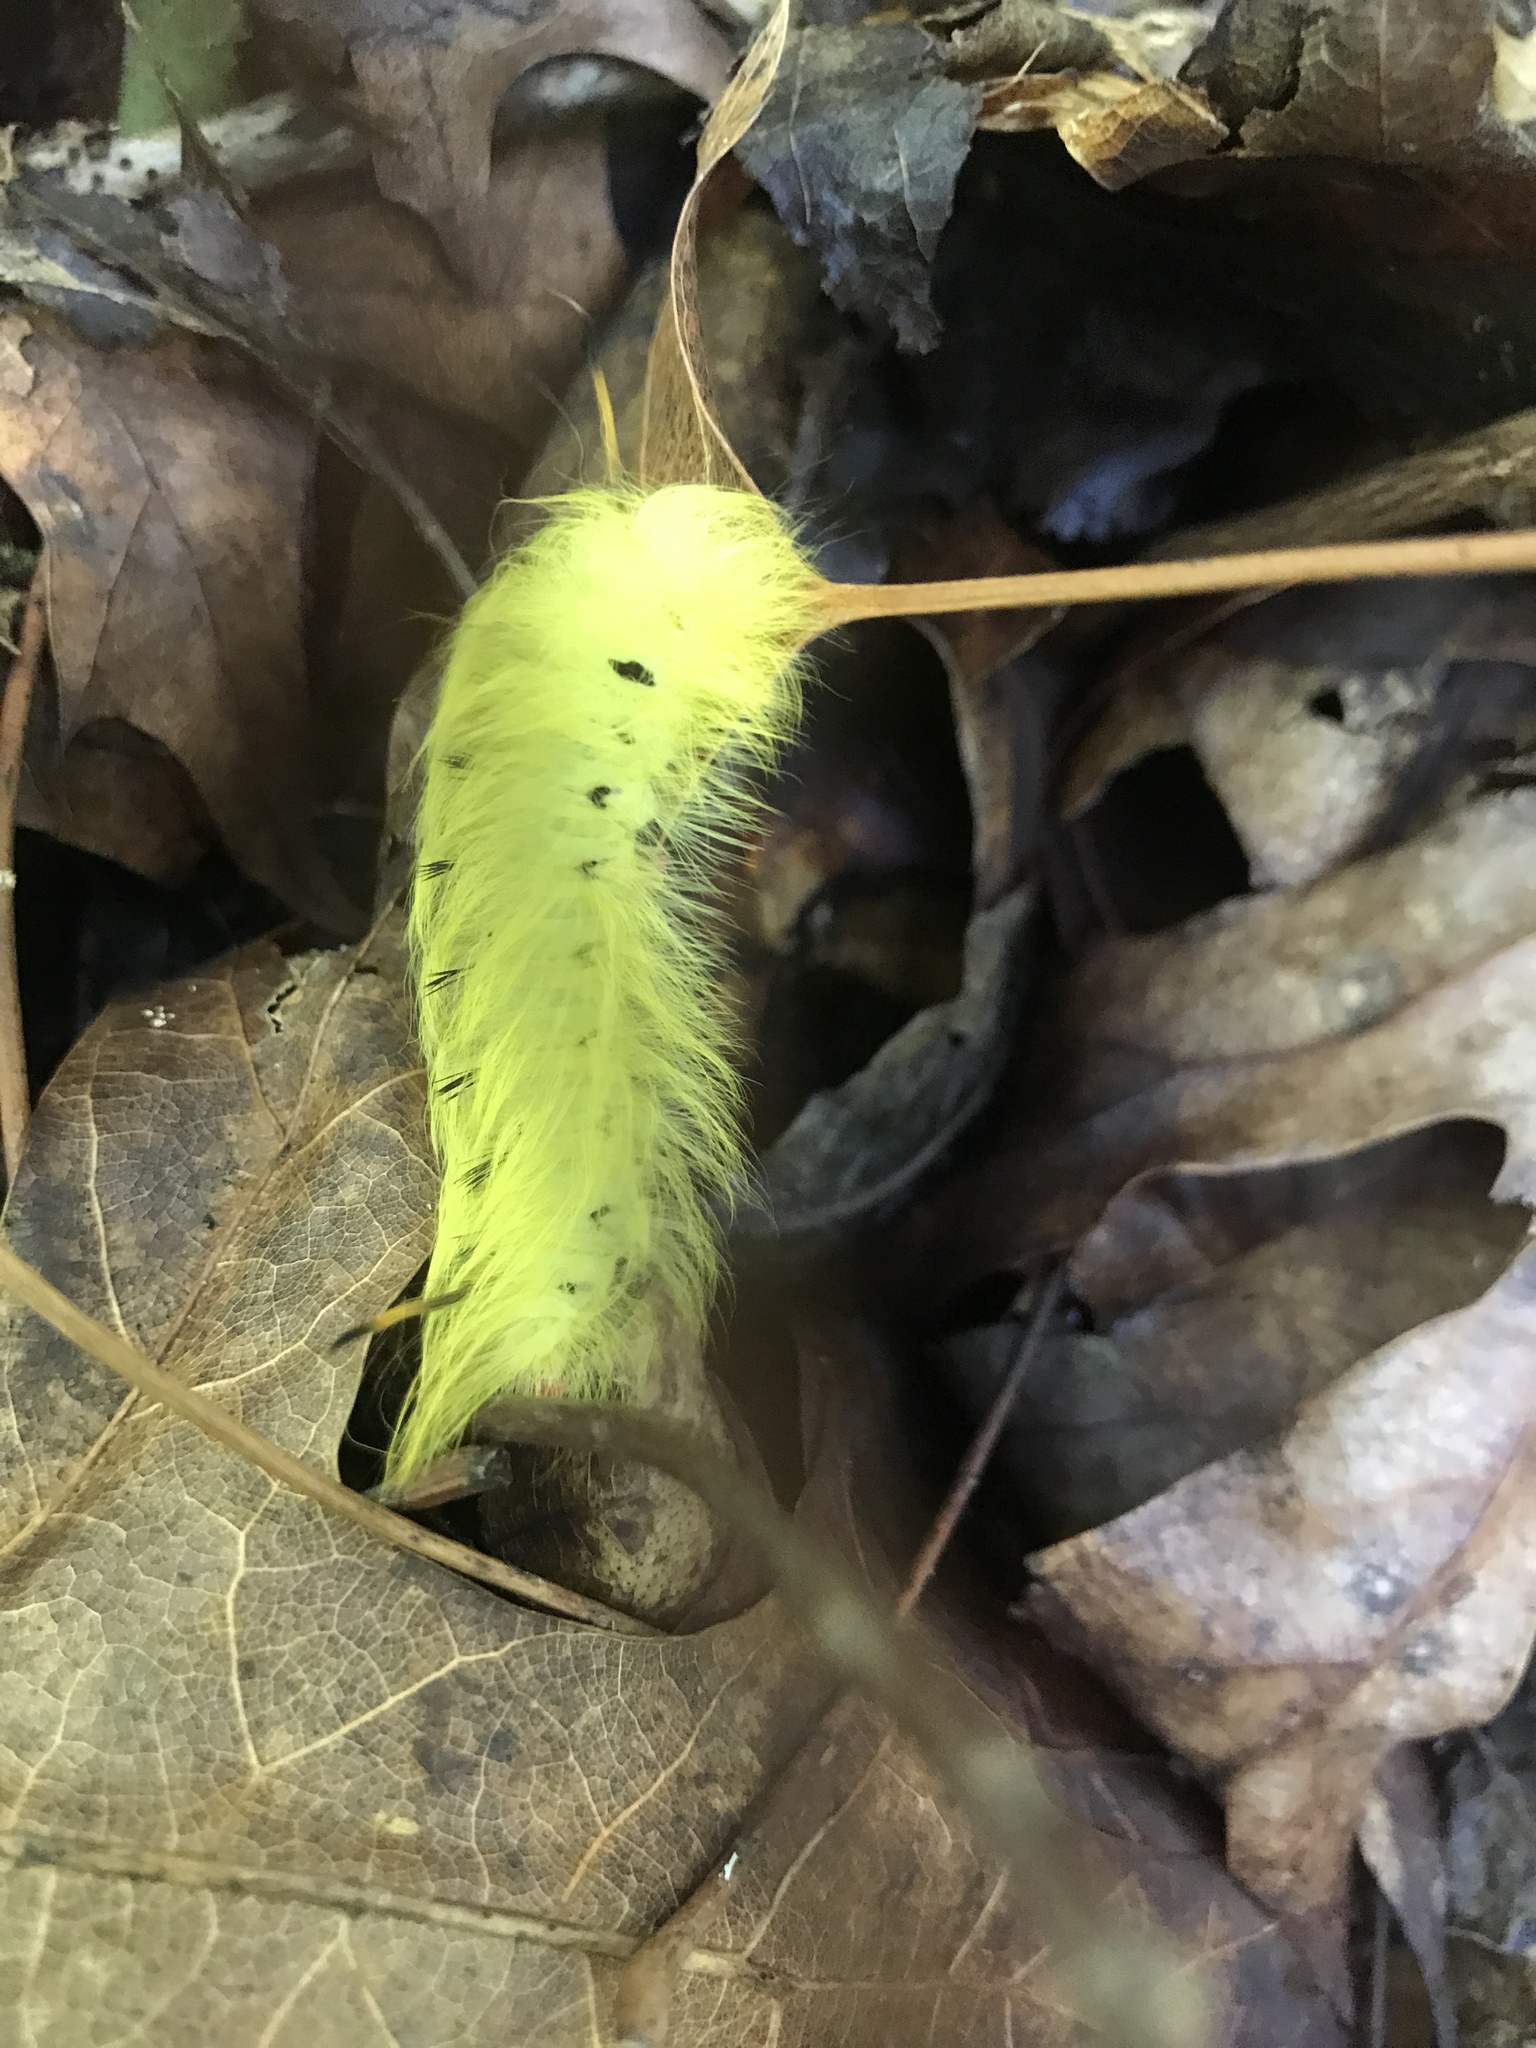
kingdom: Animalia
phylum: Arthropoda
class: Insecta
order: Lepidoptera
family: Apatelodidae
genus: Hygrochroa
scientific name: Hygrochroa Apatelodes torrefacta
